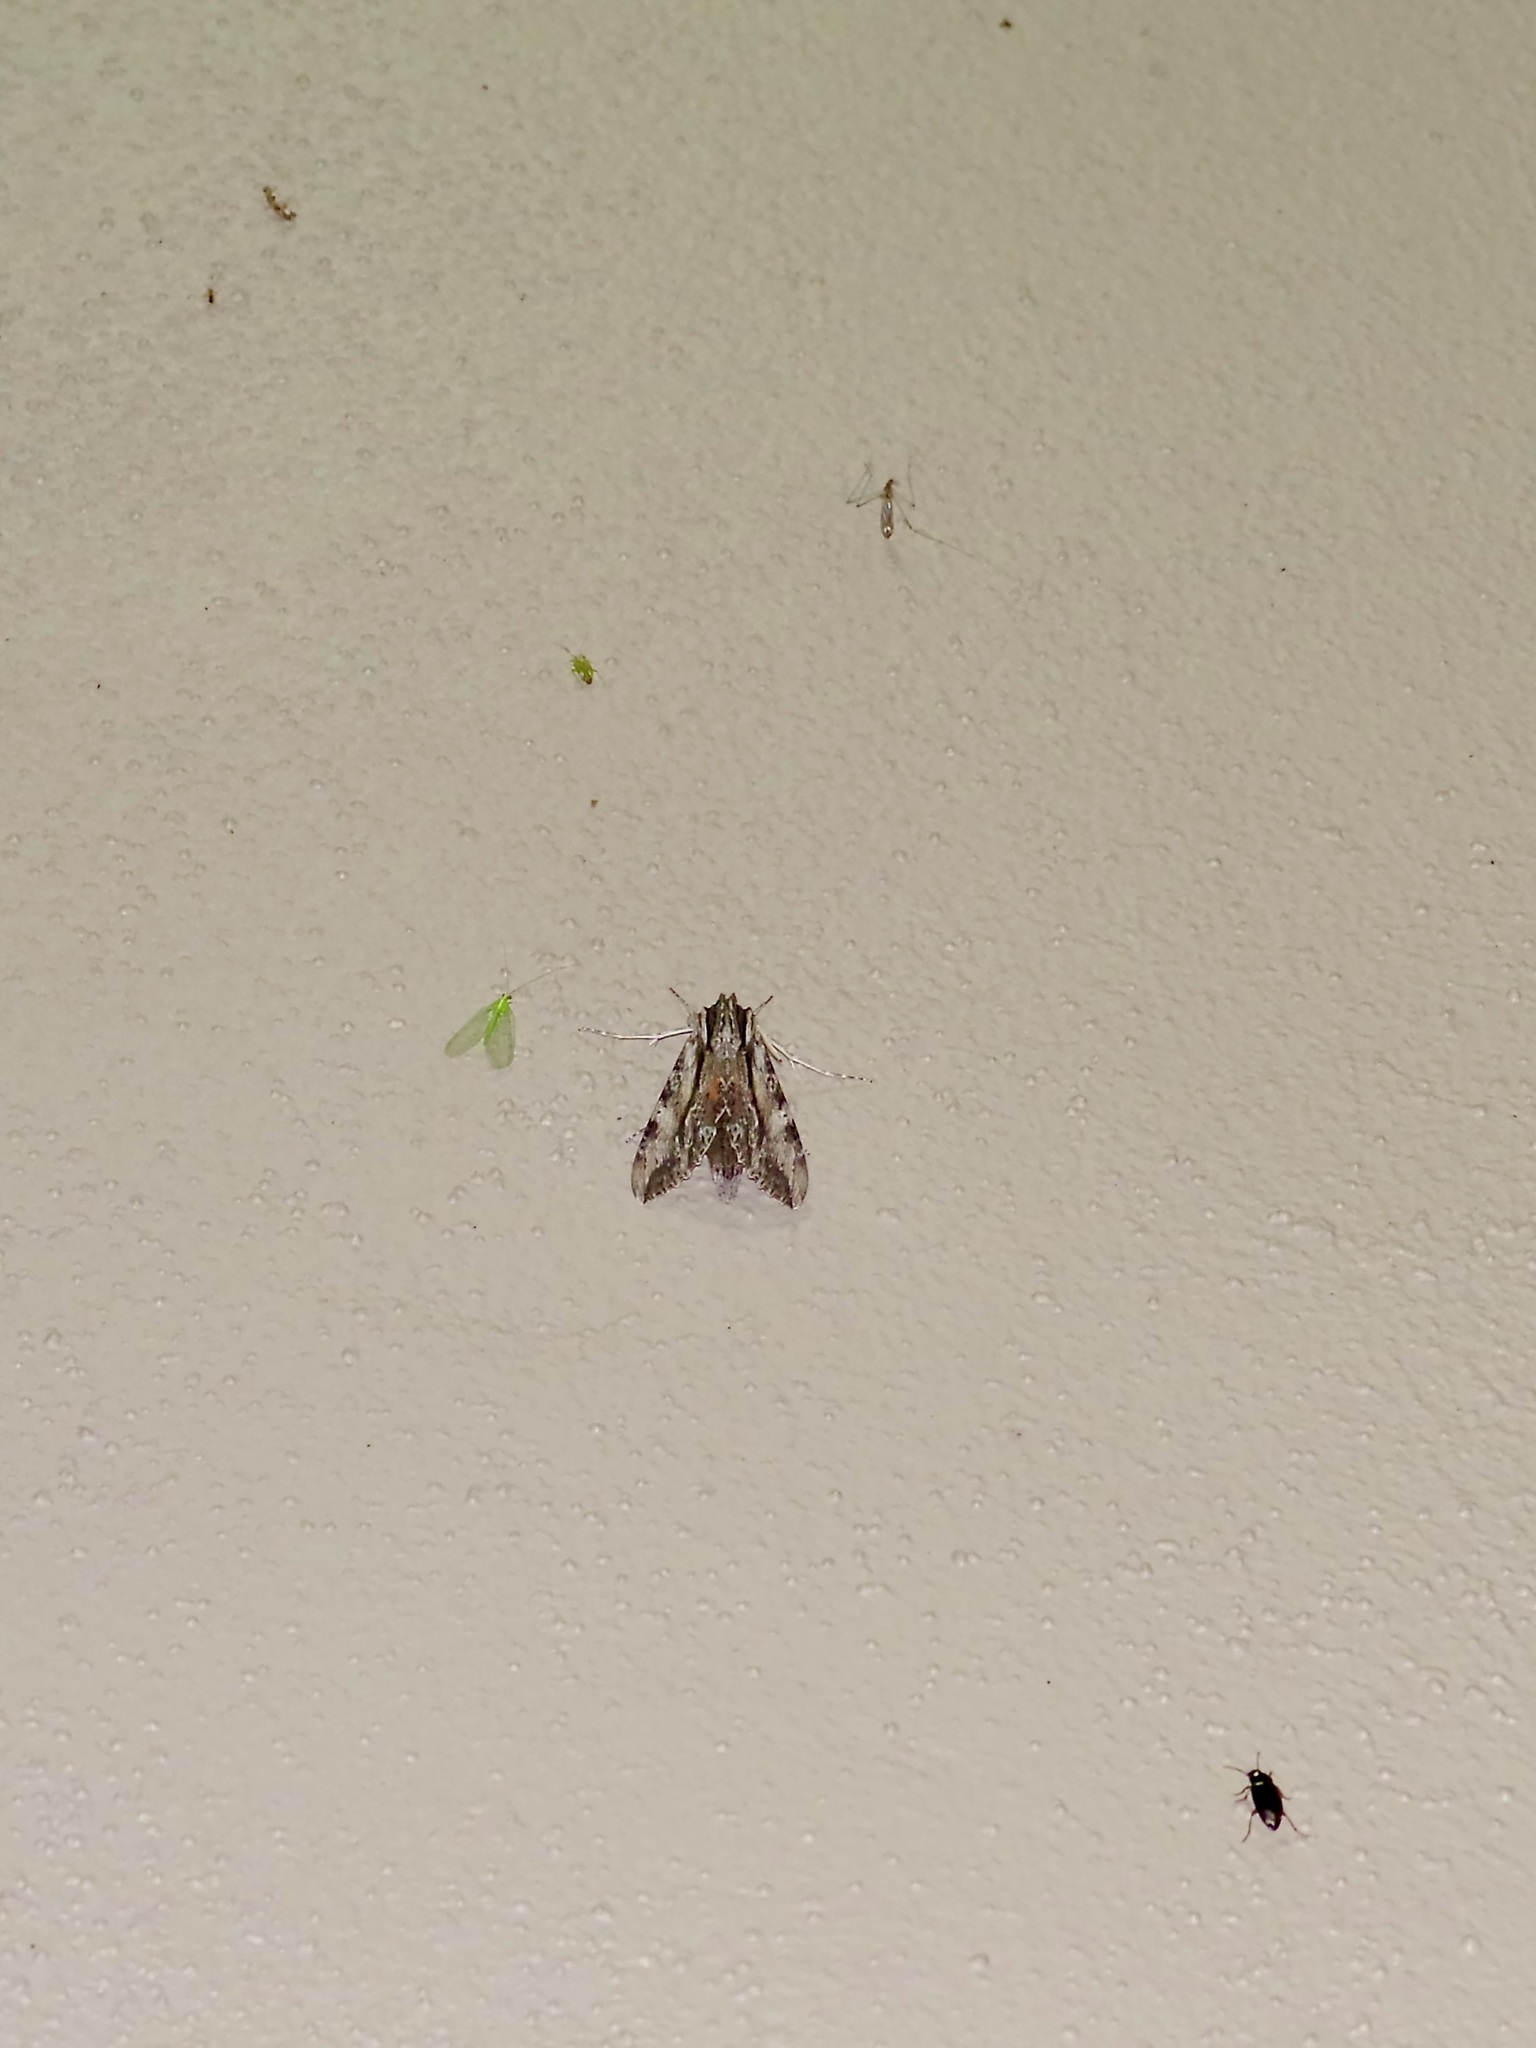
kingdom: Animalia
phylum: Arthropoda
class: Insecta
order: Lepidoptera
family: Sphingidae
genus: Erinnyis
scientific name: Erinnyis obscura
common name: Obscure sphinx
